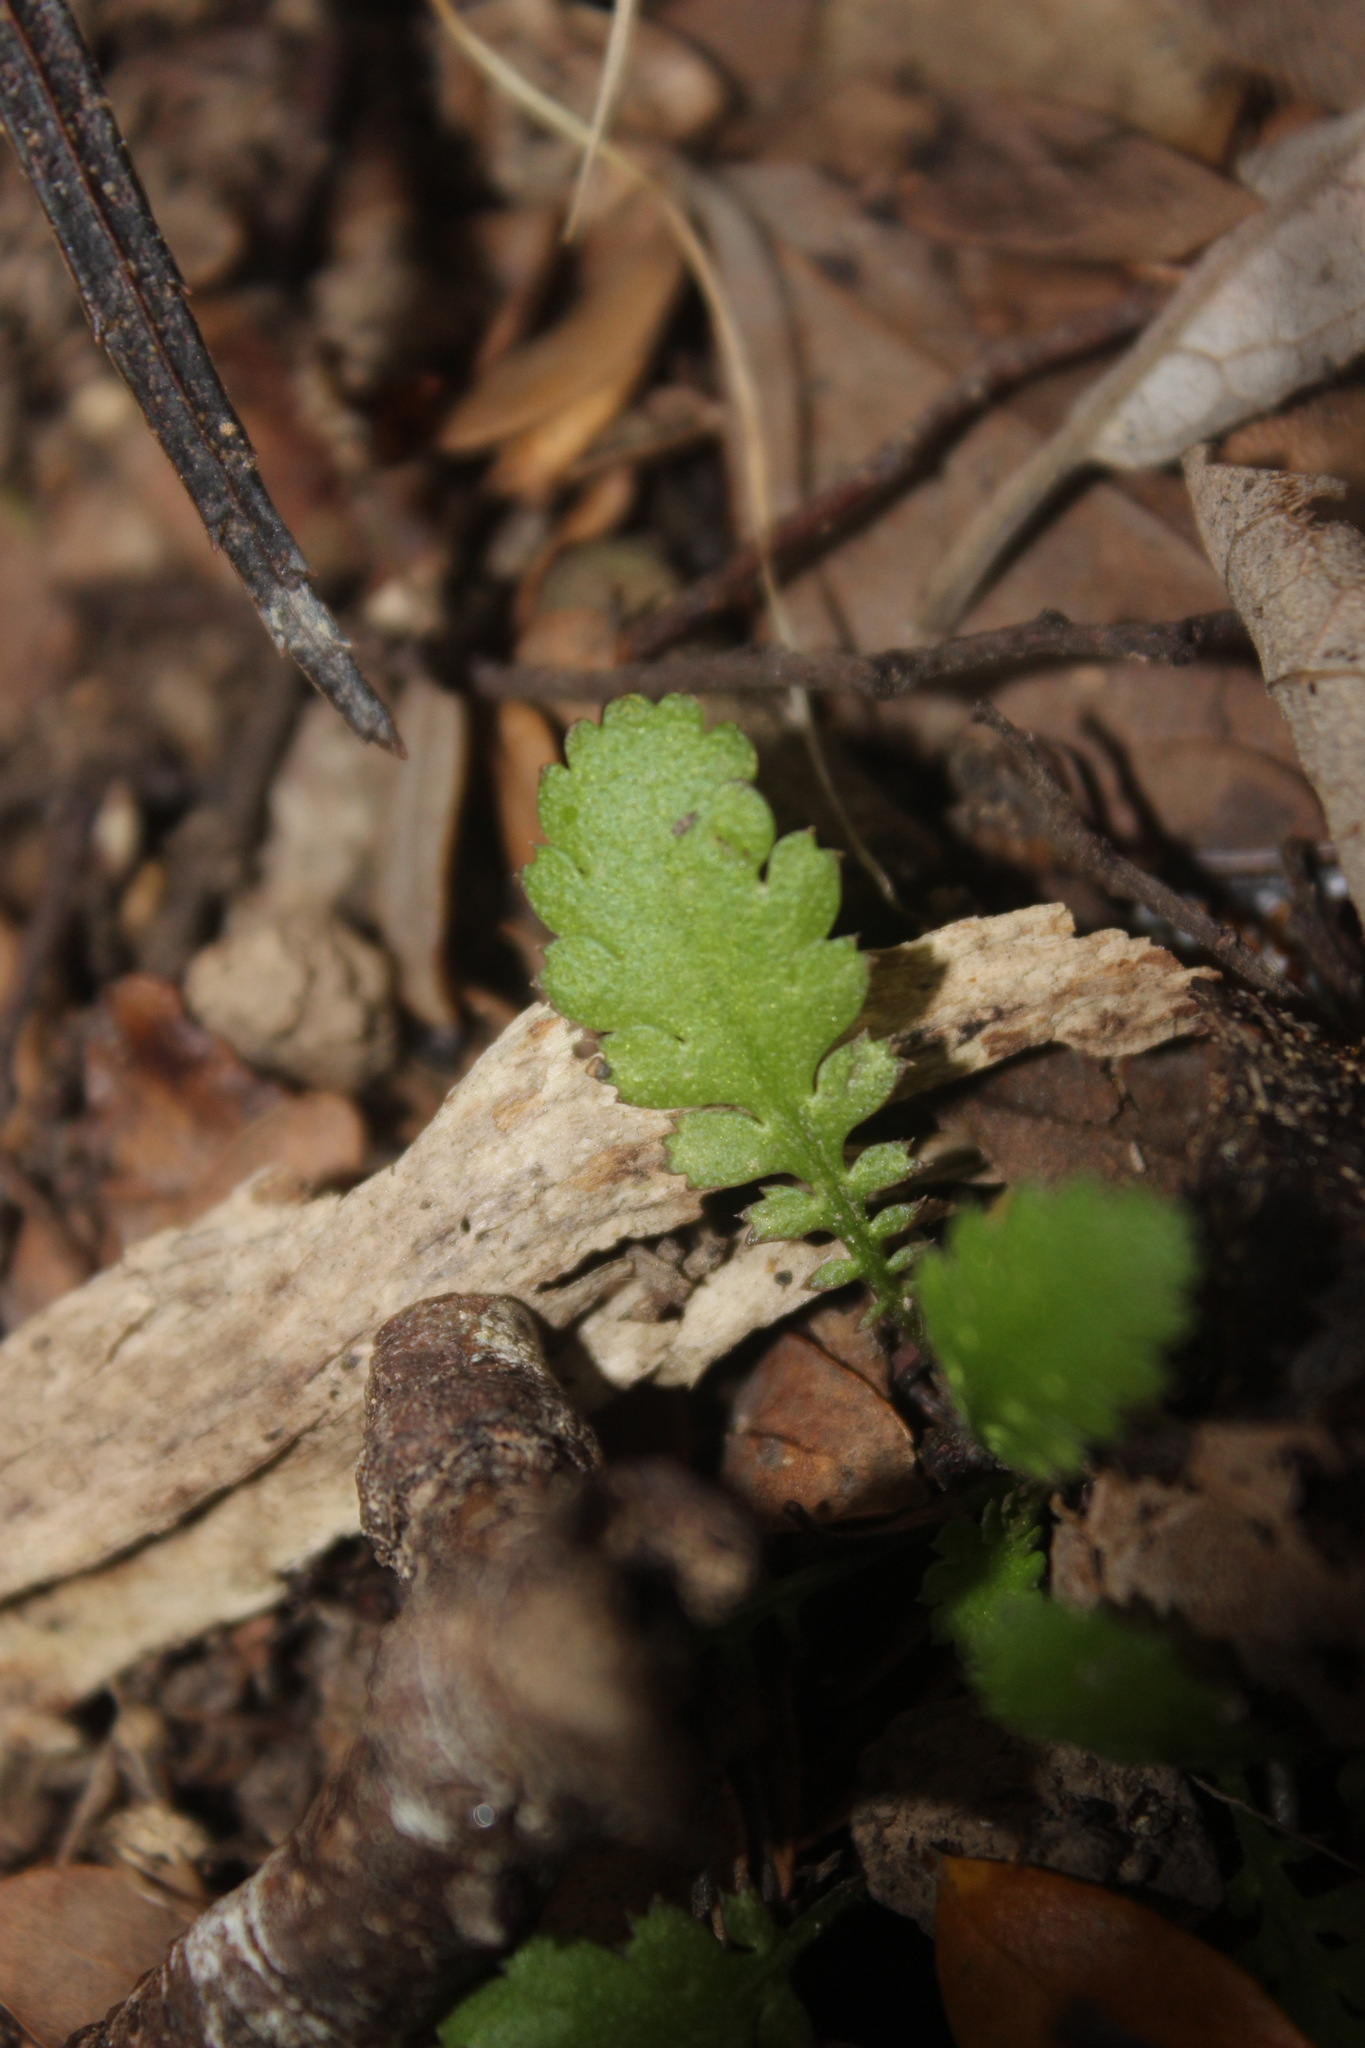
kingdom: Plantae
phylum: Tracheophyta
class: Magnoliopsida
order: Asterales
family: Asteraceae
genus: Leptinella
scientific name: Leptinella squalida
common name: New zealand brass-buttons
